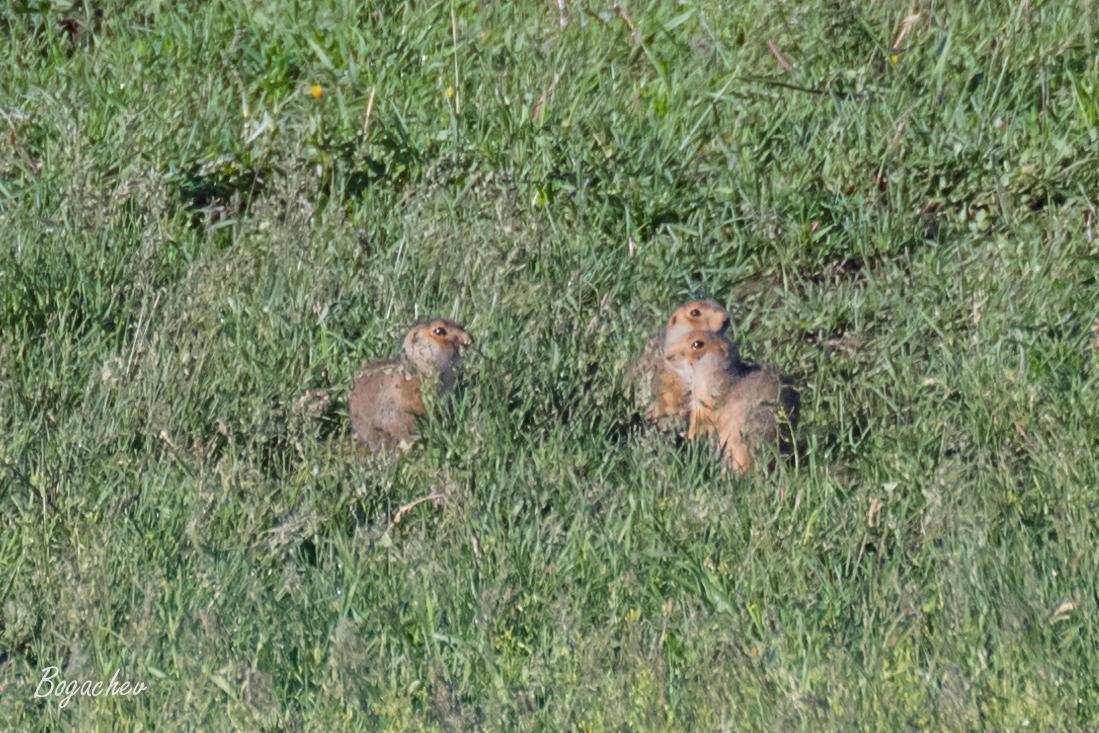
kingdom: Animalia
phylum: Chordata
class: Mammalia
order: Rodentia
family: Sciuridae
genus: Spermophilus
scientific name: Spermophilus major
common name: Russet ground squirrel
